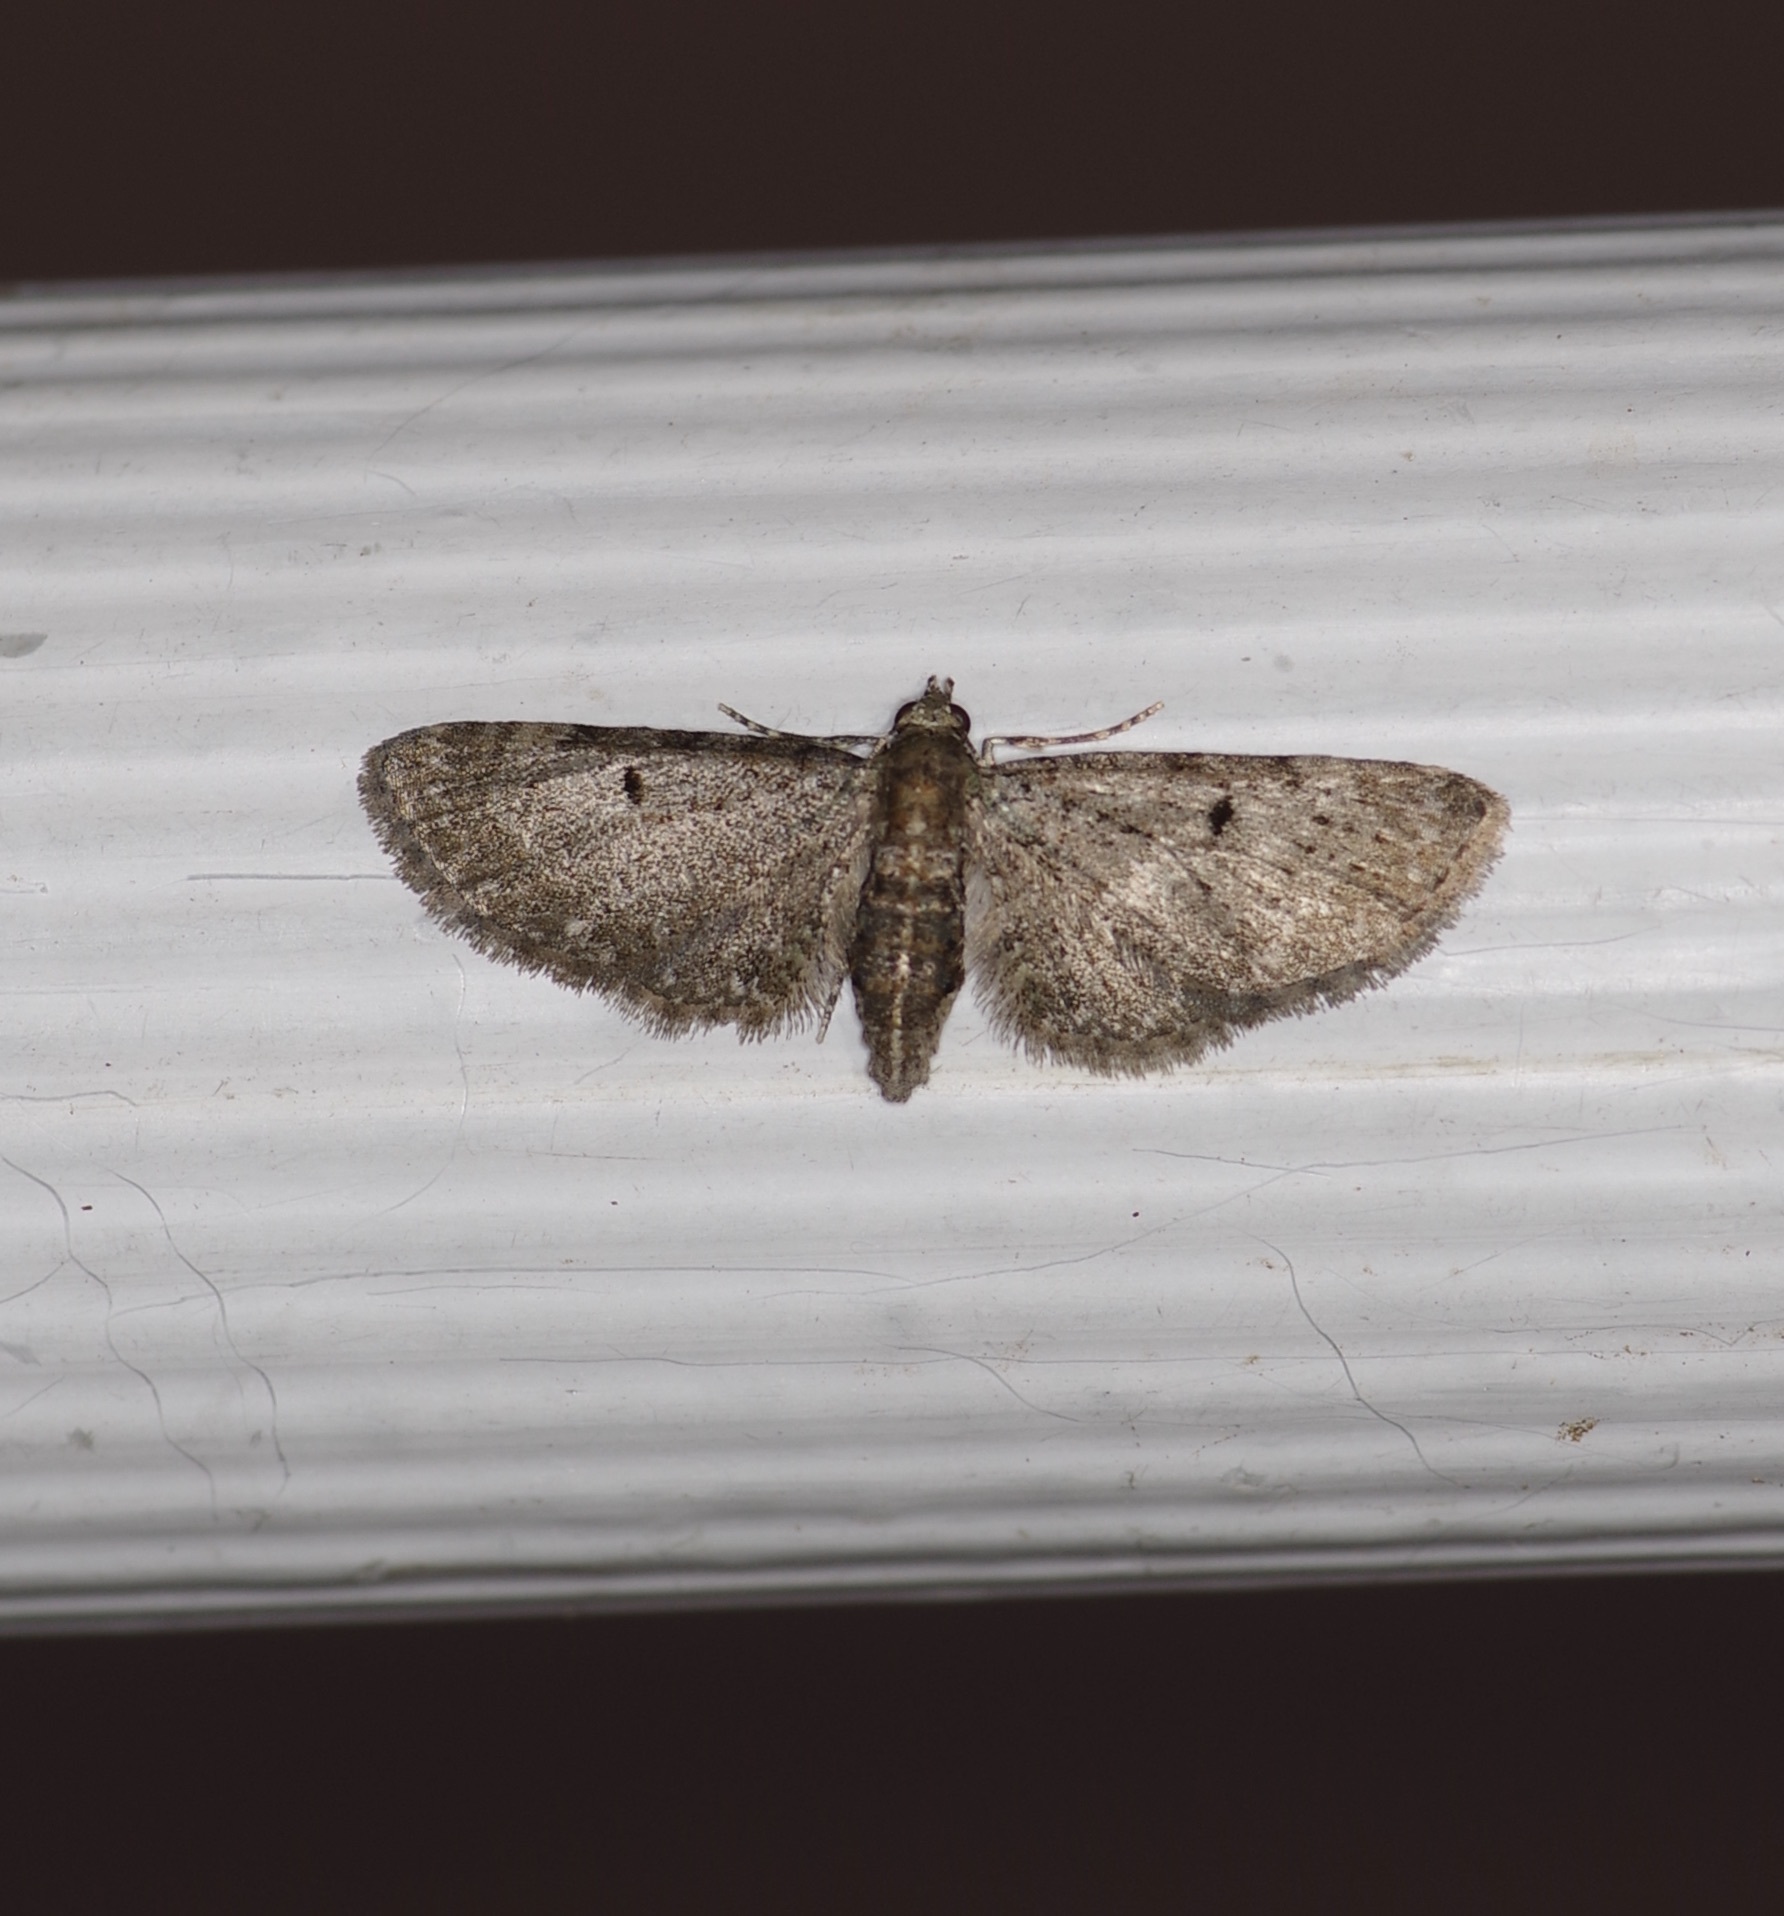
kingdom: Animalia
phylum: Arthropoda
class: Insecta
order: Lepidoptera
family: Geometridae
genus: Eupithecia
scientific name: Eupithecia miserulata
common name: Common eupithecia
